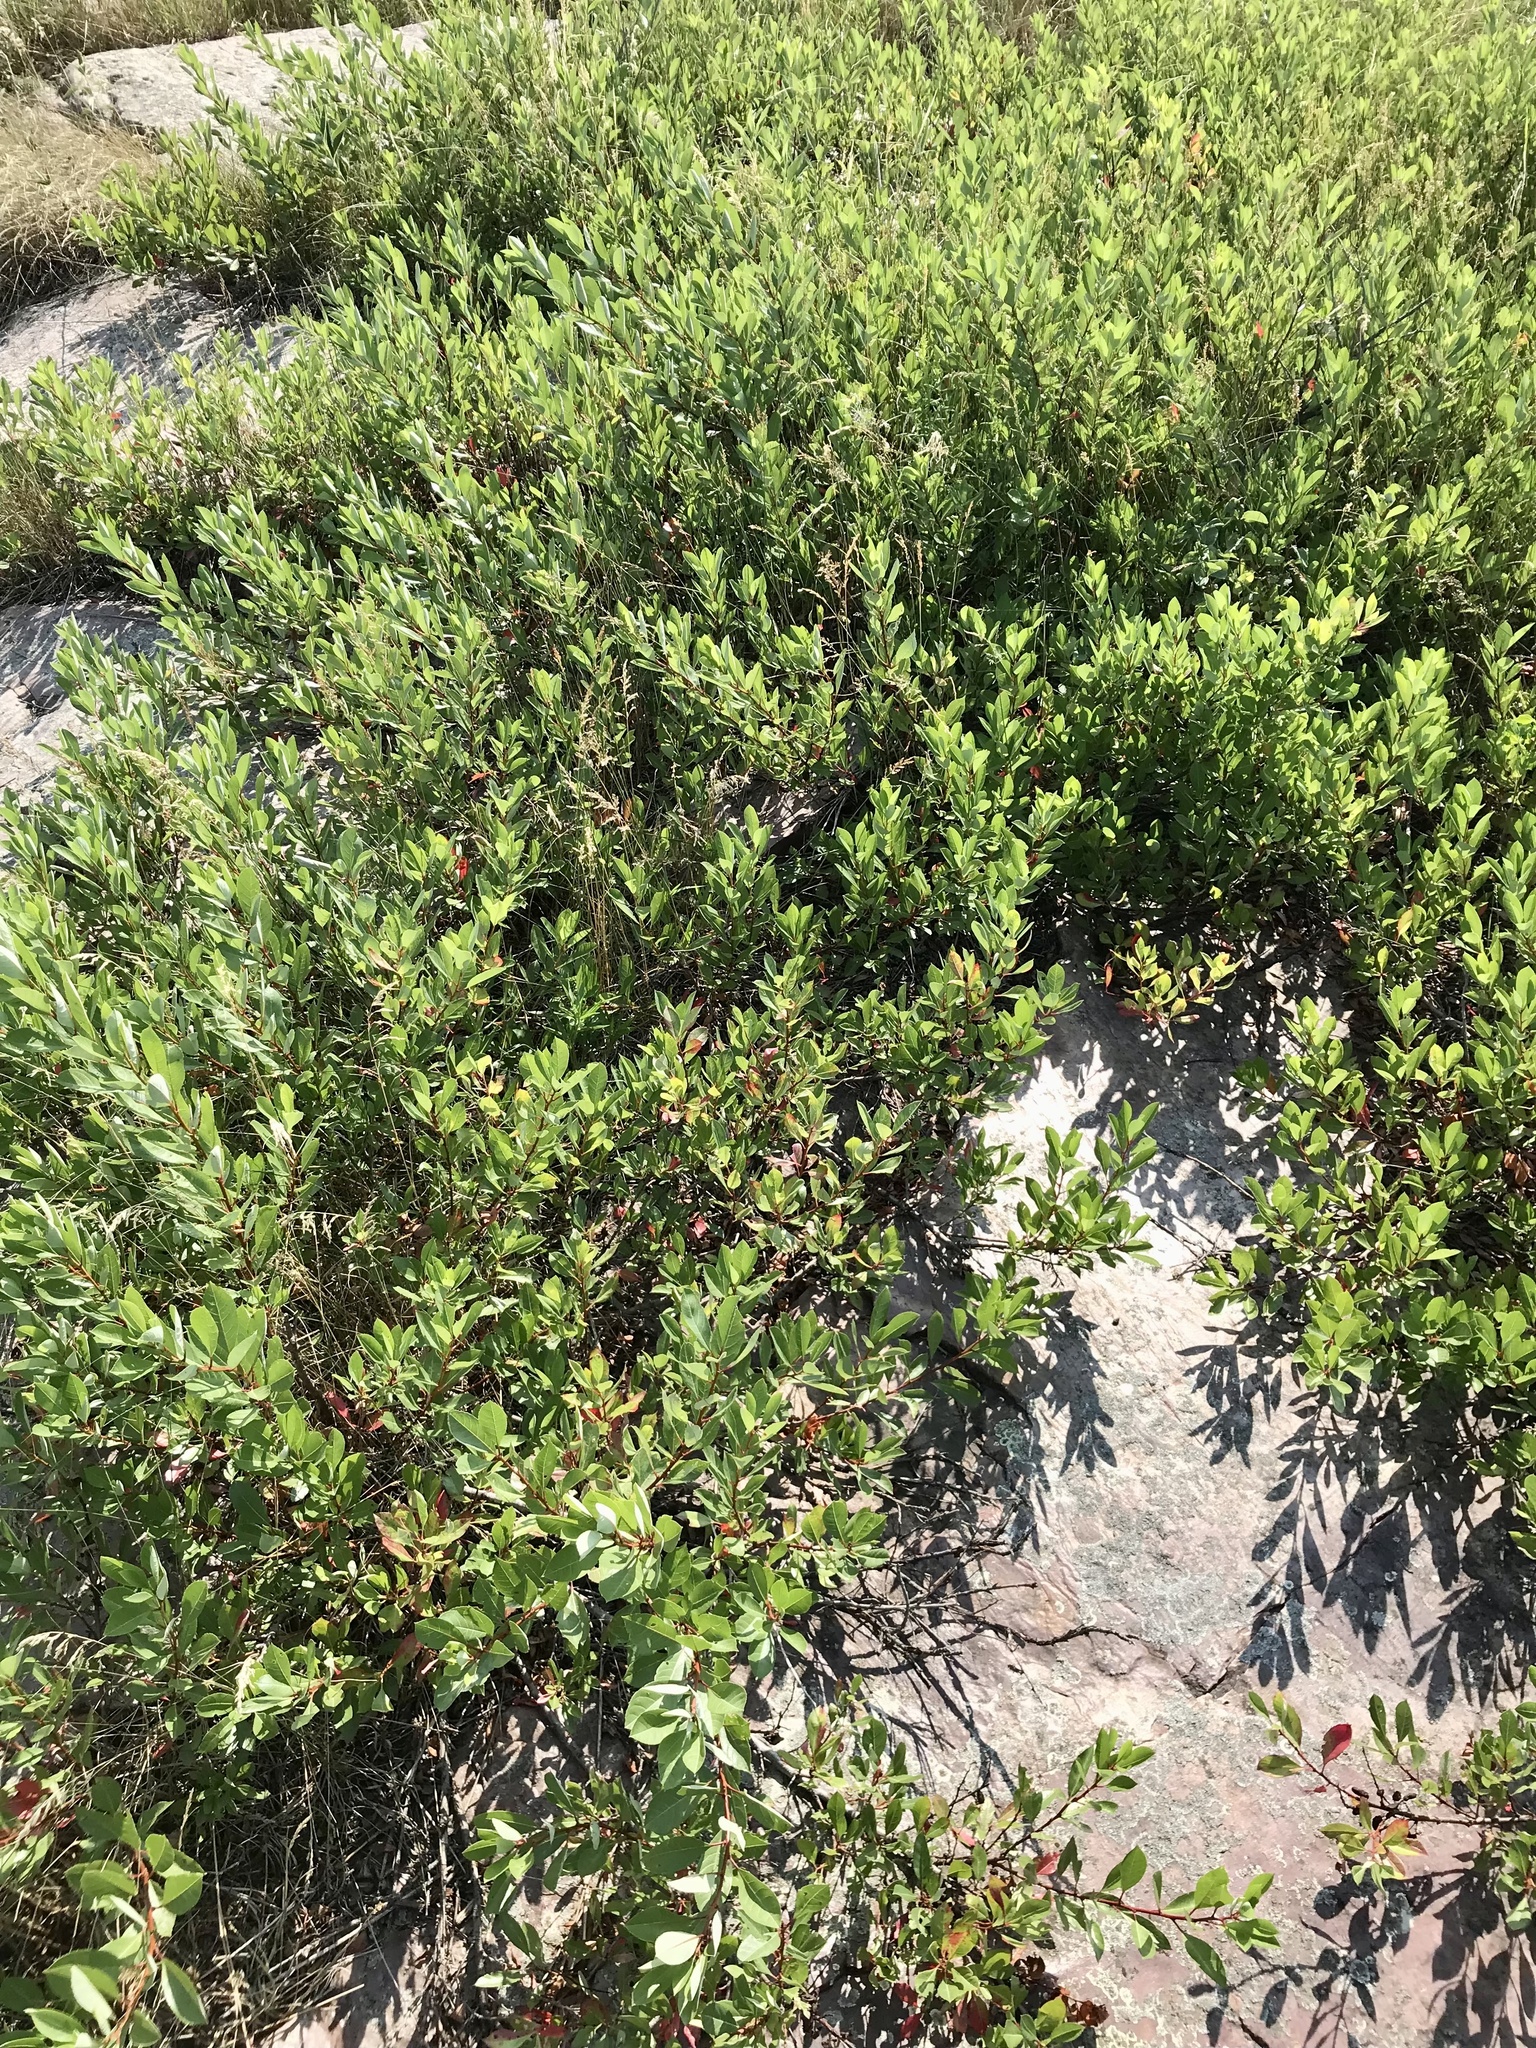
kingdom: Plantae
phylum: Tracheophyta
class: Magnoliopsida
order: Rosales
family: Rosaceae
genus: Prunus
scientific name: Prunus pumila
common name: Dwarf cherry
